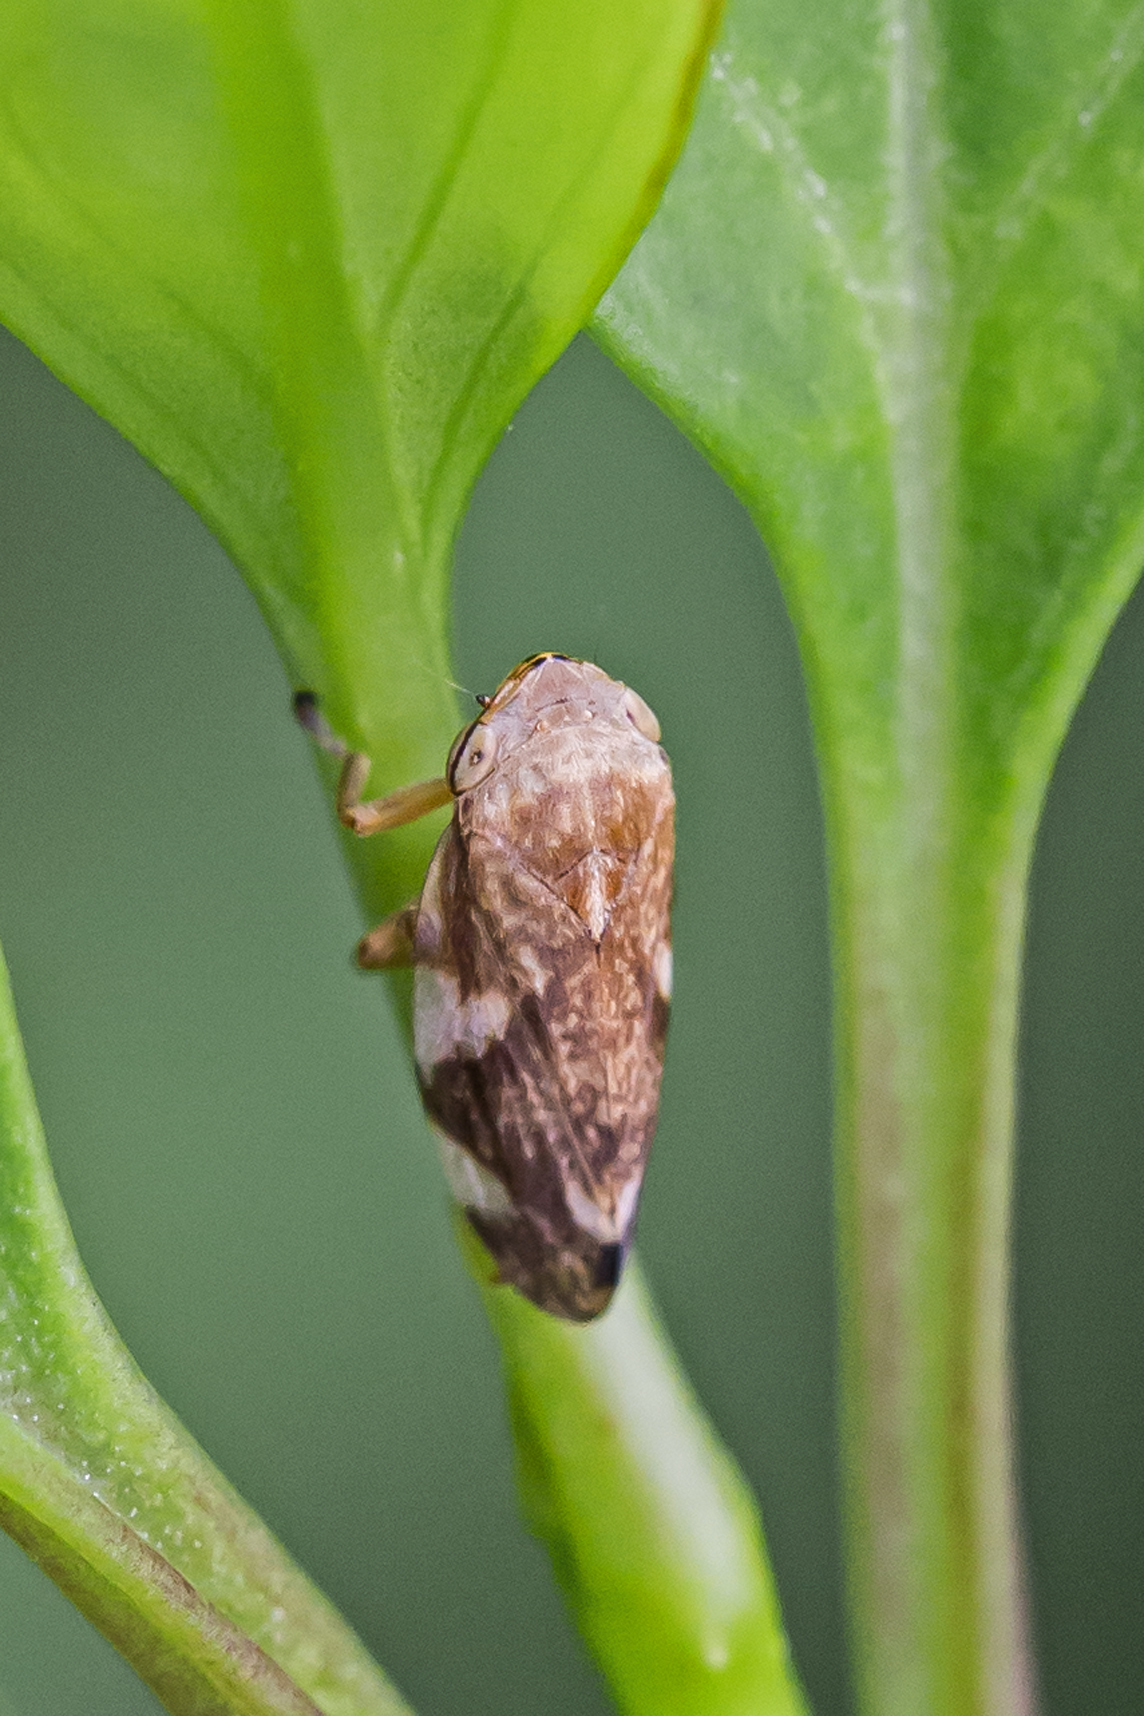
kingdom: Animalia
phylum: Arthropoda
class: Insecta
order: Hemiptera
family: Aphrophoridae
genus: Philaenus
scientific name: Philaenus spumarius
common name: Meadow spittlebug
